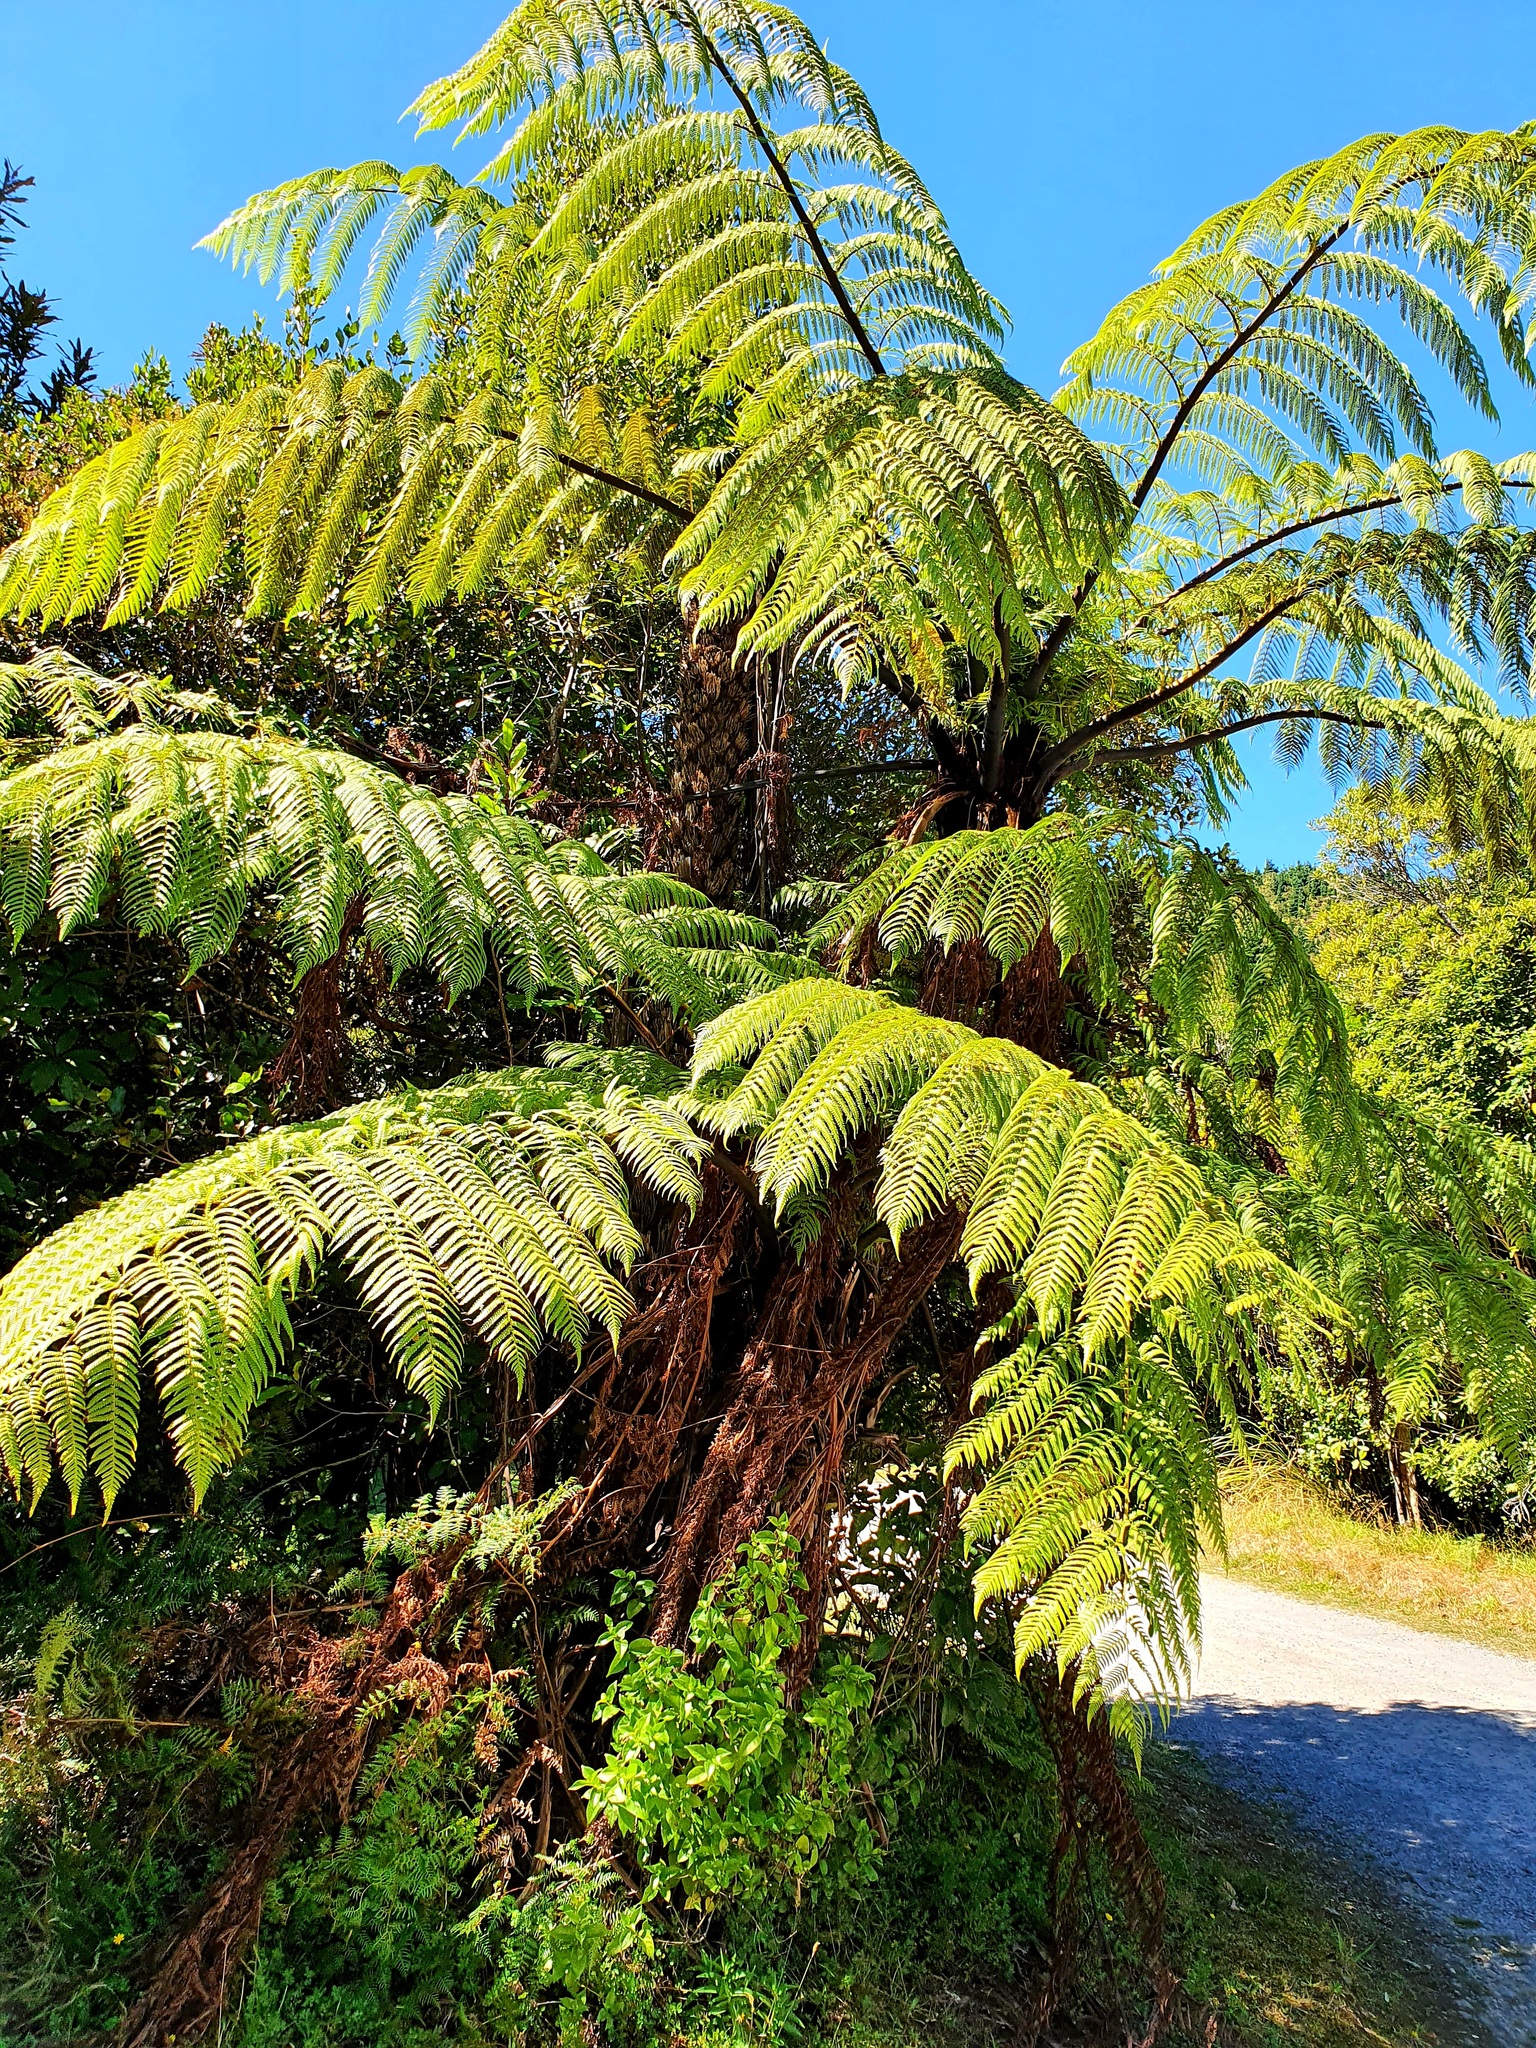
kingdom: Plantae
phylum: Tracheophyta
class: Polypodiopsida
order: Cyatheales
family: Cyatheaceae
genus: Sphaeropteris
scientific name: Sphaeropteris medullaris
